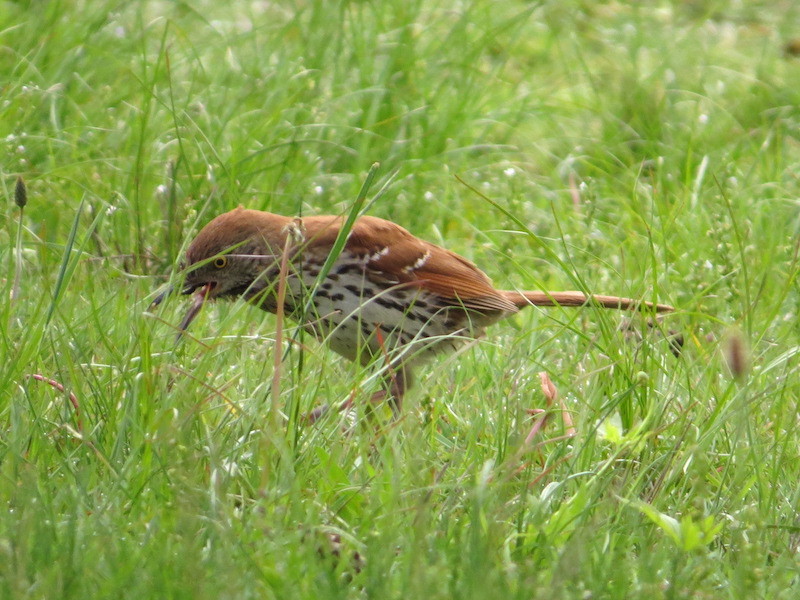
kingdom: Animalia
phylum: Chordata
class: Aves
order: Passeriformes
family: Mimidae
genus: Toxostoma
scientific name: Toxostoma rufum
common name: Brown thrasher
